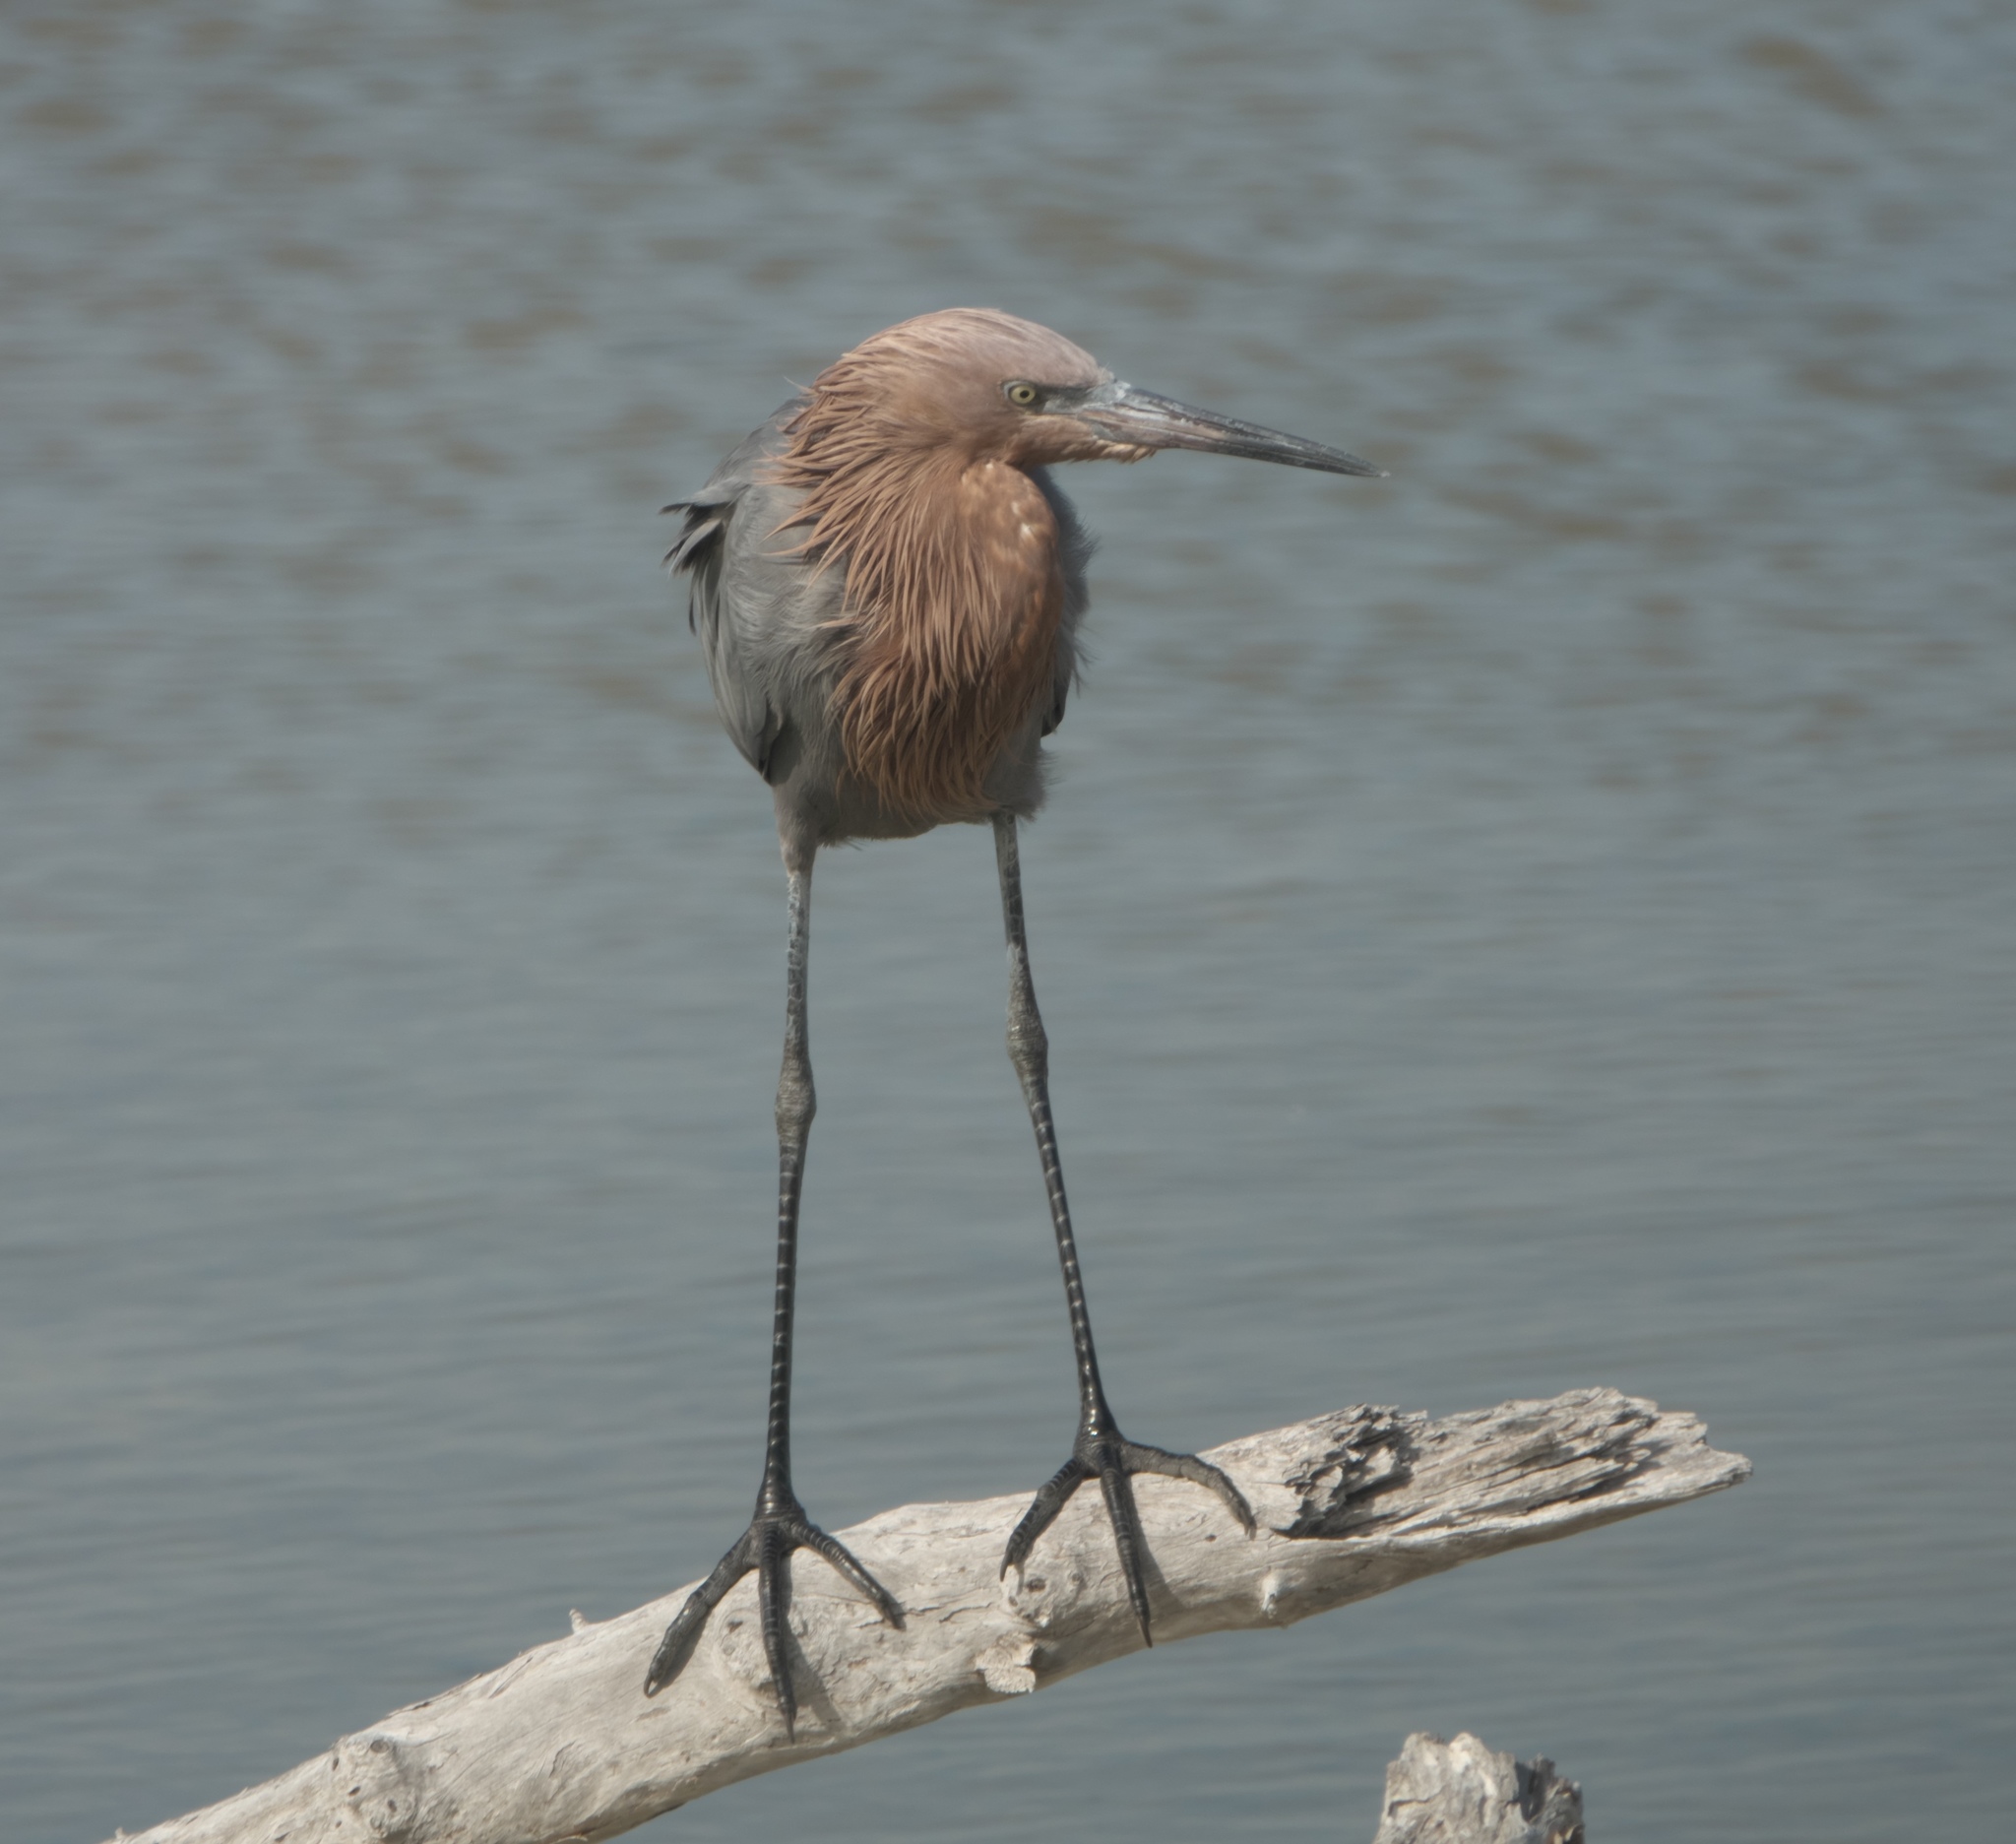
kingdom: Animalia
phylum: Chordata
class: Aves
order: Pelecaniformes
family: Ardeidae
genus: Egretta
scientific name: Egretta rufescens
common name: Reddish egret
